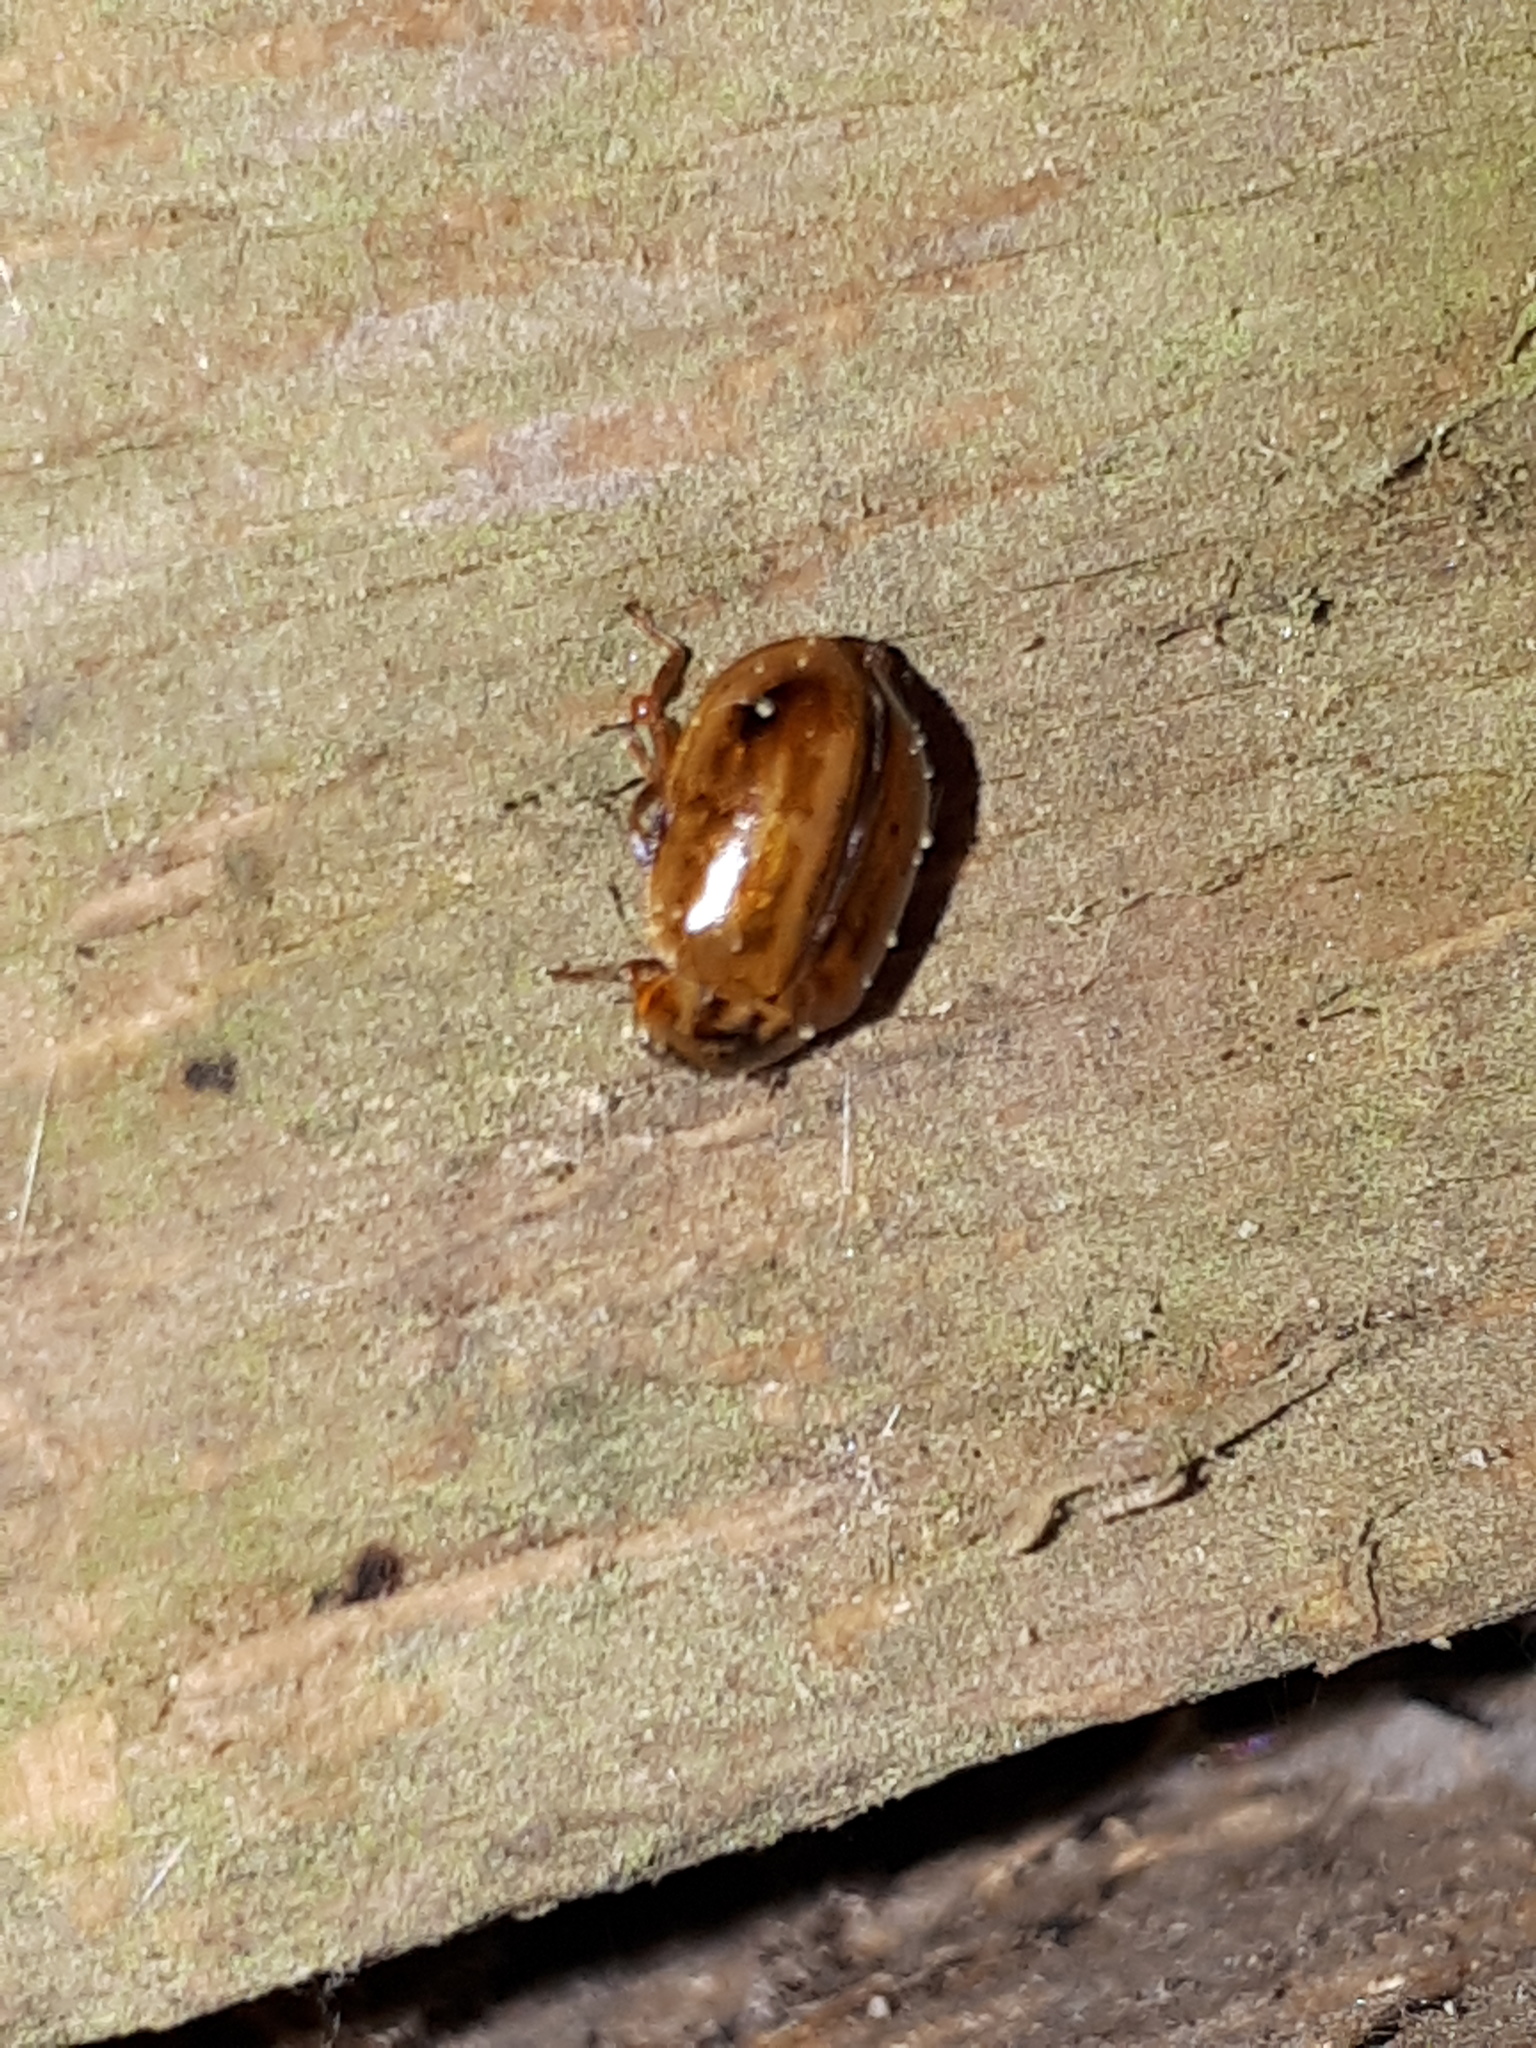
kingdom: Animalia
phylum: Arthropoda
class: Insecta
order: Coleoptera
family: Coccinellidae
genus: Aphidecta
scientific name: Aphidecta obliterata
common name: Larch ladybird
